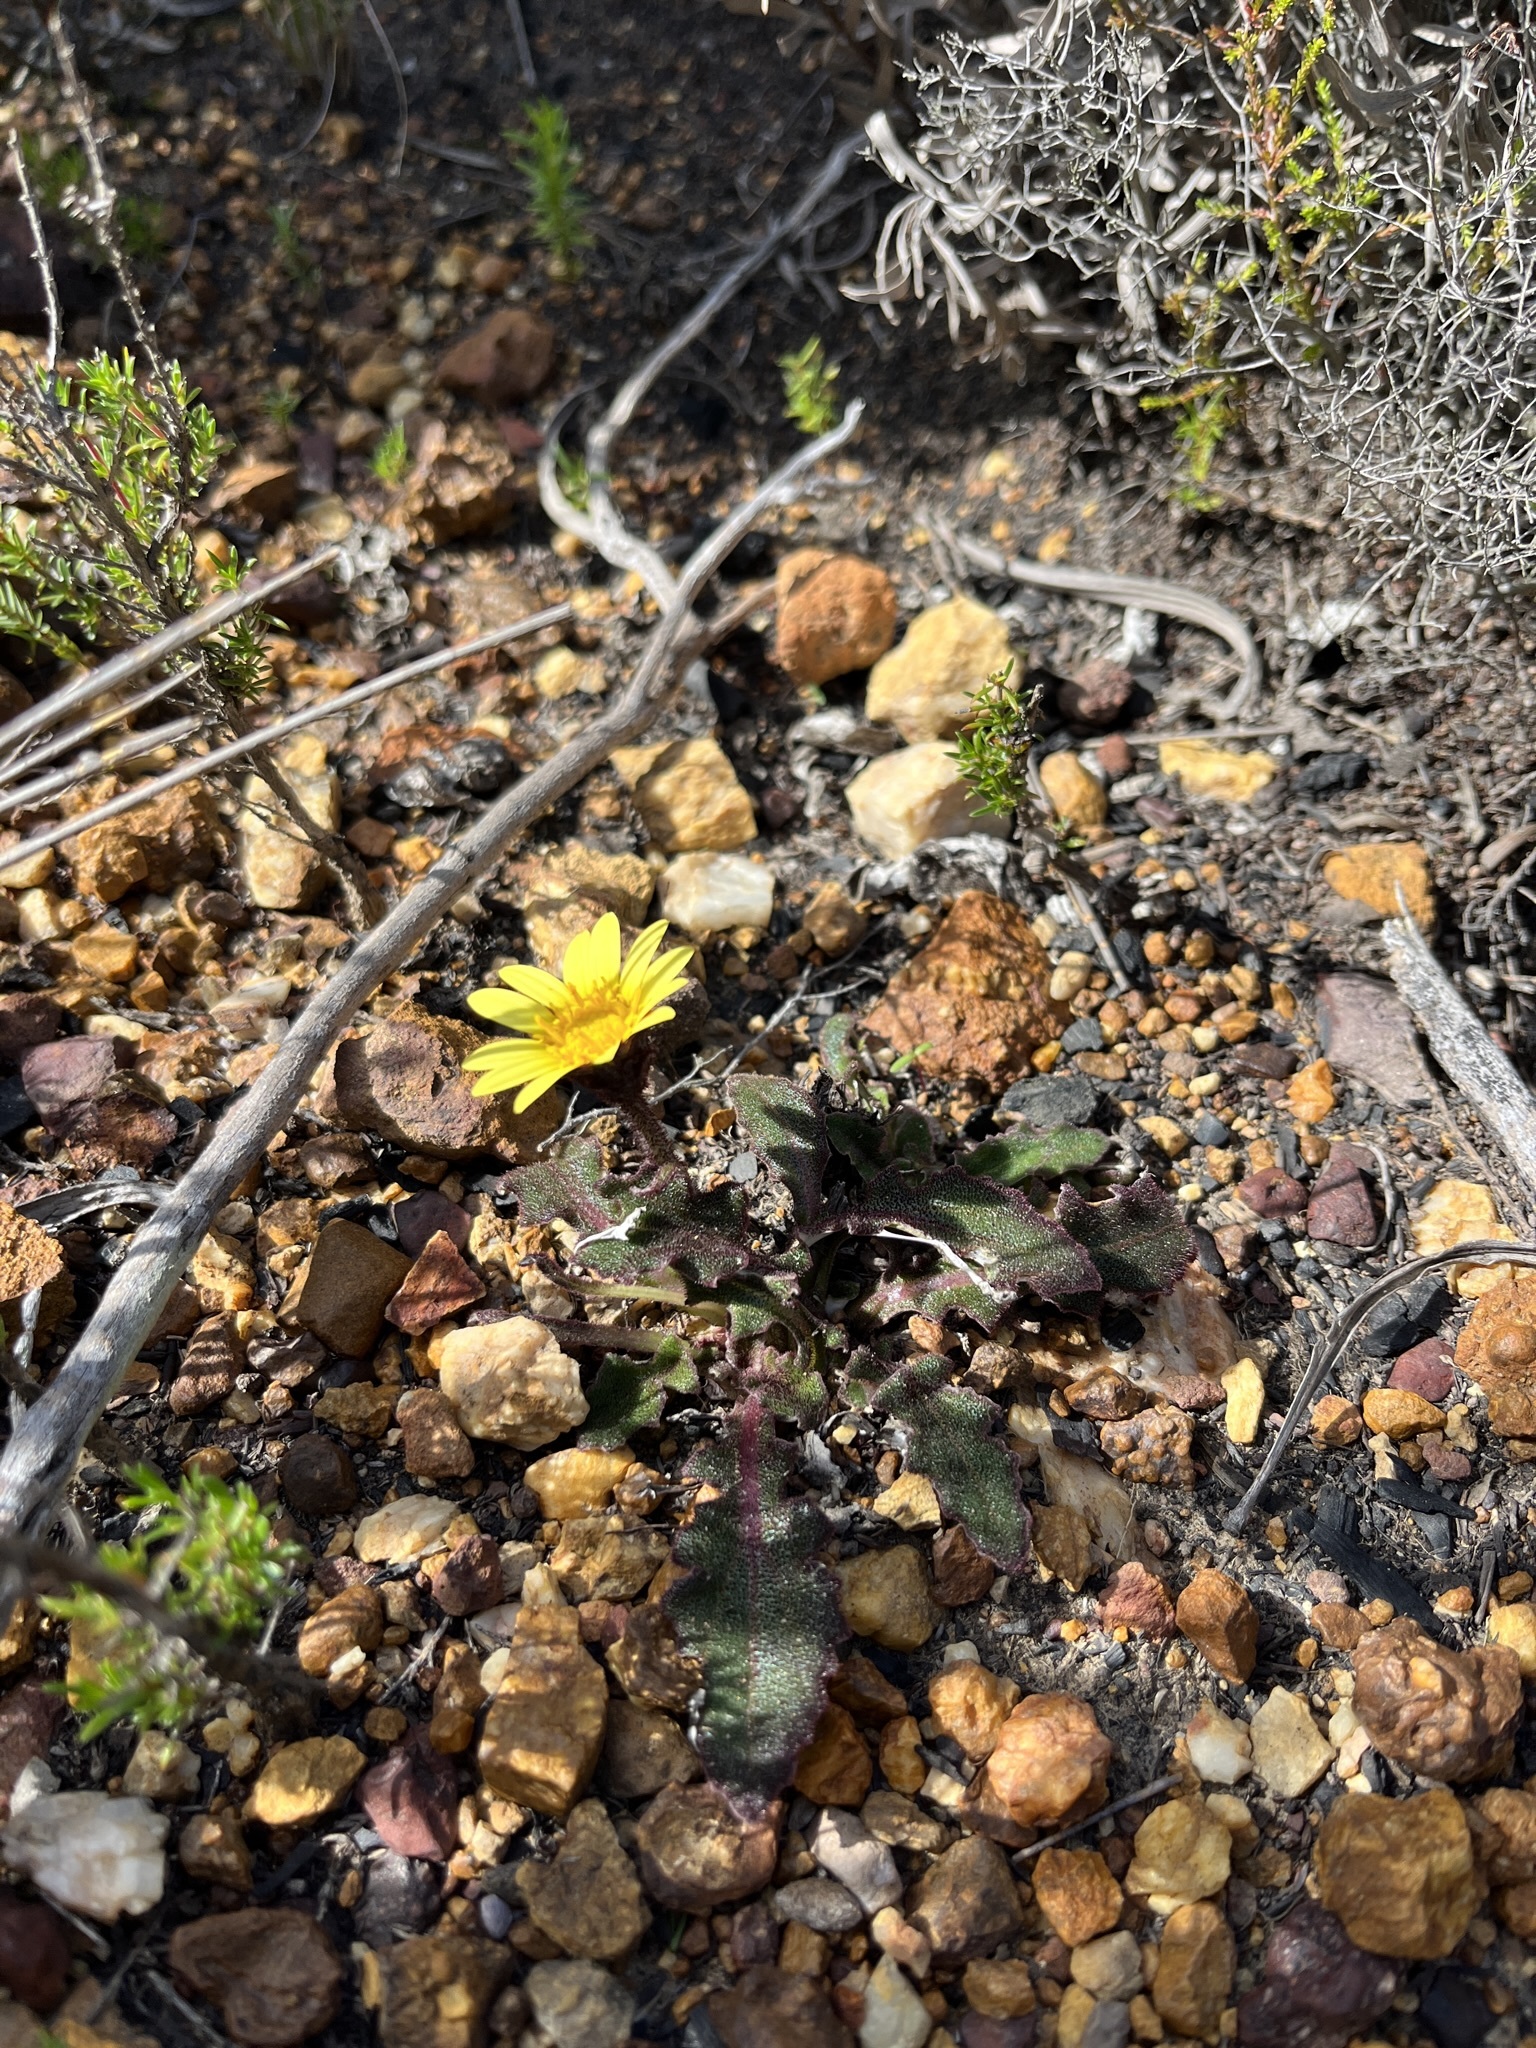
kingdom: Plantae
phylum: Tracheophyta
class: Magnoliopsida
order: Asterales
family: Asteraceae
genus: Haplocarpha
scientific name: Haplocarpha lanata
